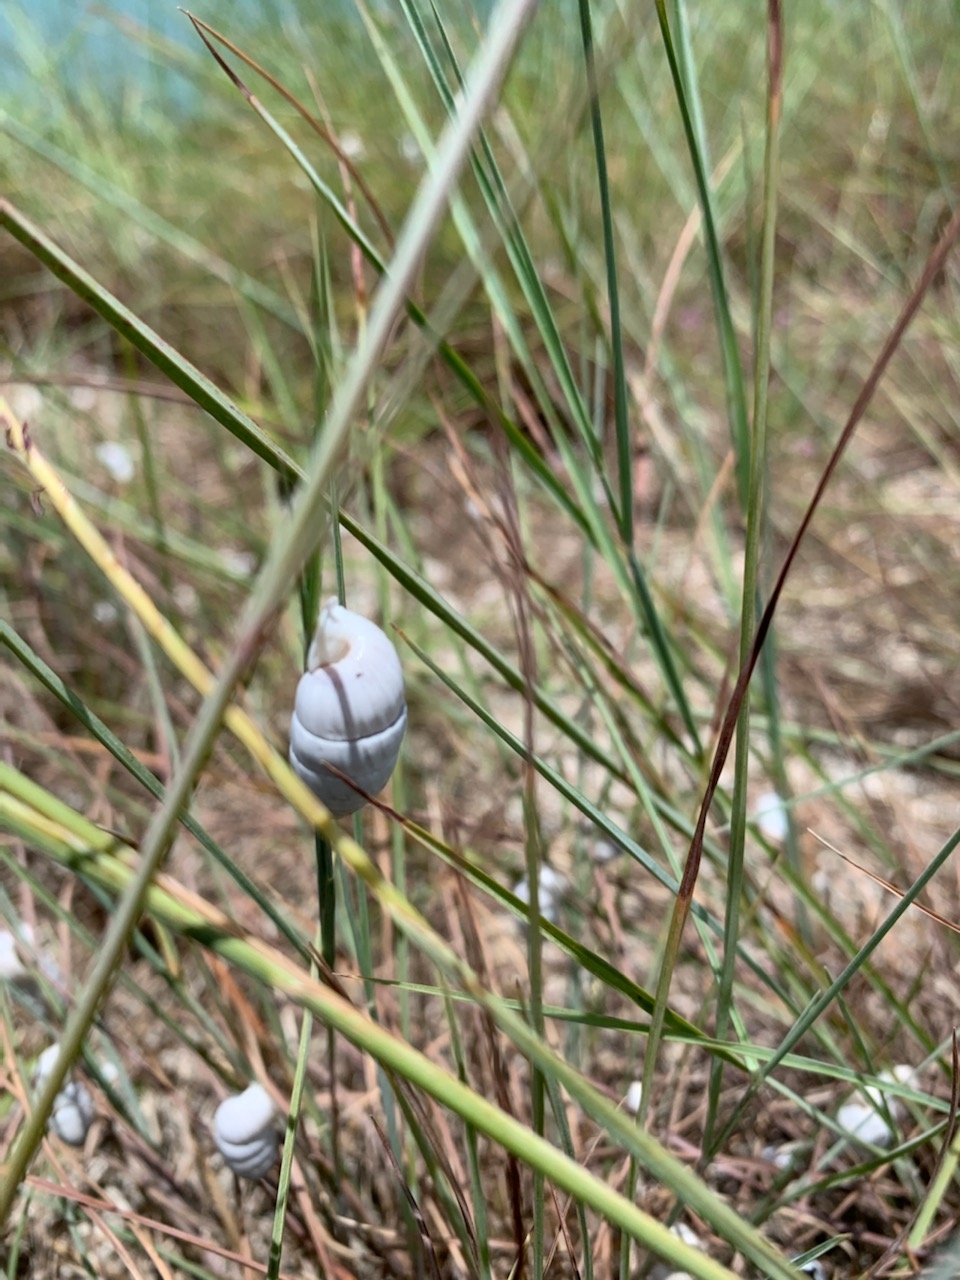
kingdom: Animalia
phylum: Mollusca
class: Gastropoda
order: Stylommatophora
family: Cerionidae
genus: Cerion
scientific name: Cerion incanum
